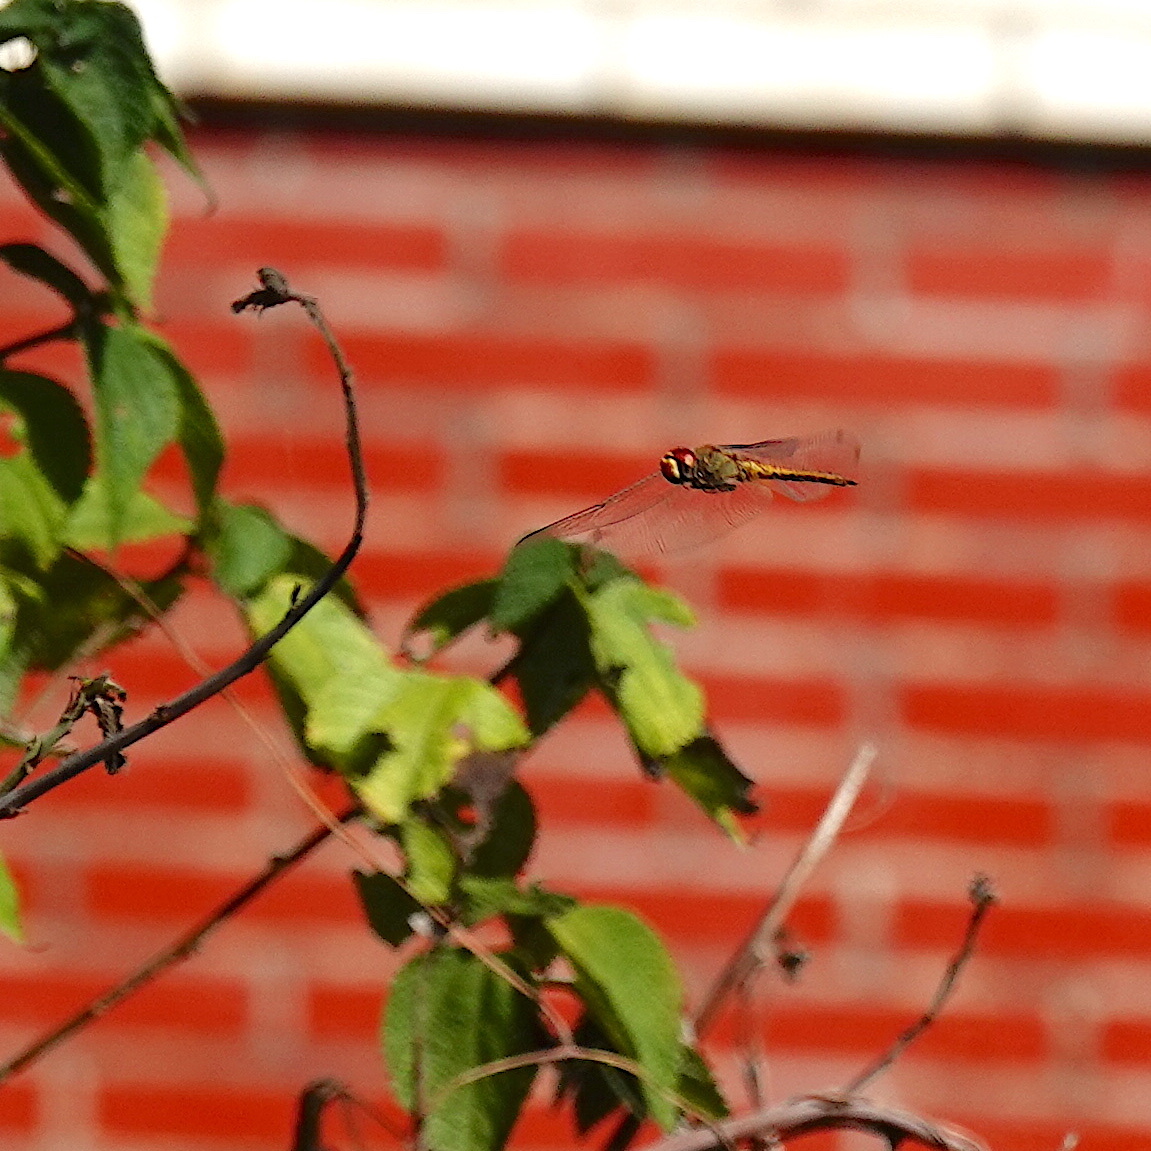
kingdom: Animalia
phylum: Arthropoda
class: Insecta
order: Odonata
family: Libellulidae
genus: Pantala
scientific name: Pantala flavescens
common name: Wandering glider
